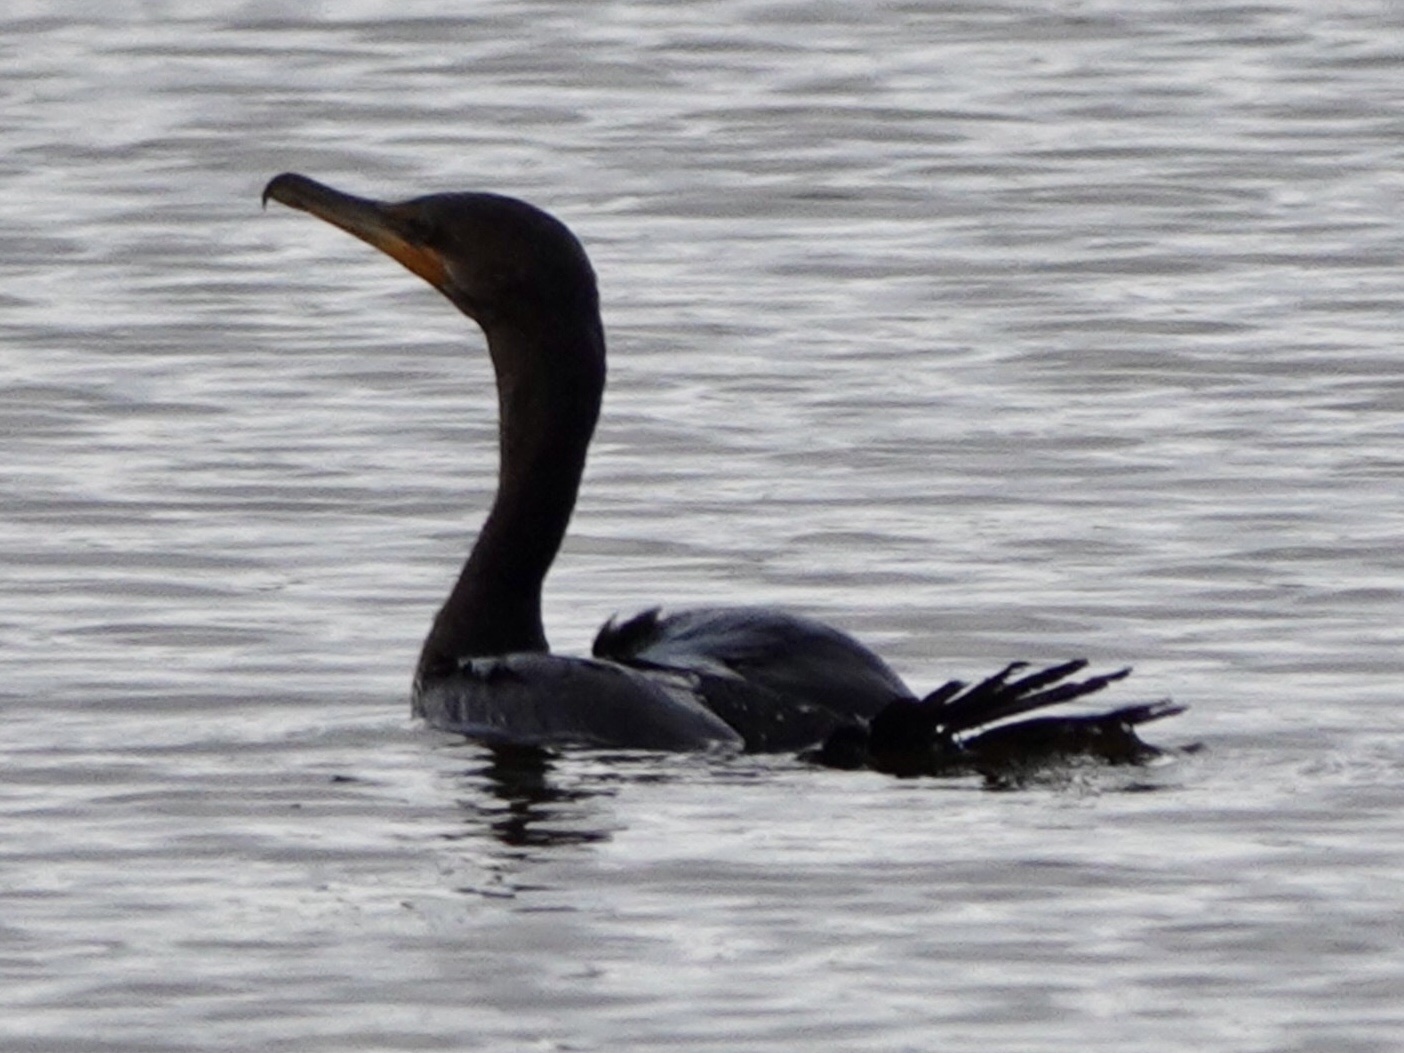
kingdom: Animalia
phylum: Chordata
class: Aves
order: Suliformes
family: Phalacrocoracidae
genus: Phalacrocorax
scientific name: Phalacrocorax auritus
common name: Double-crested cormorant
